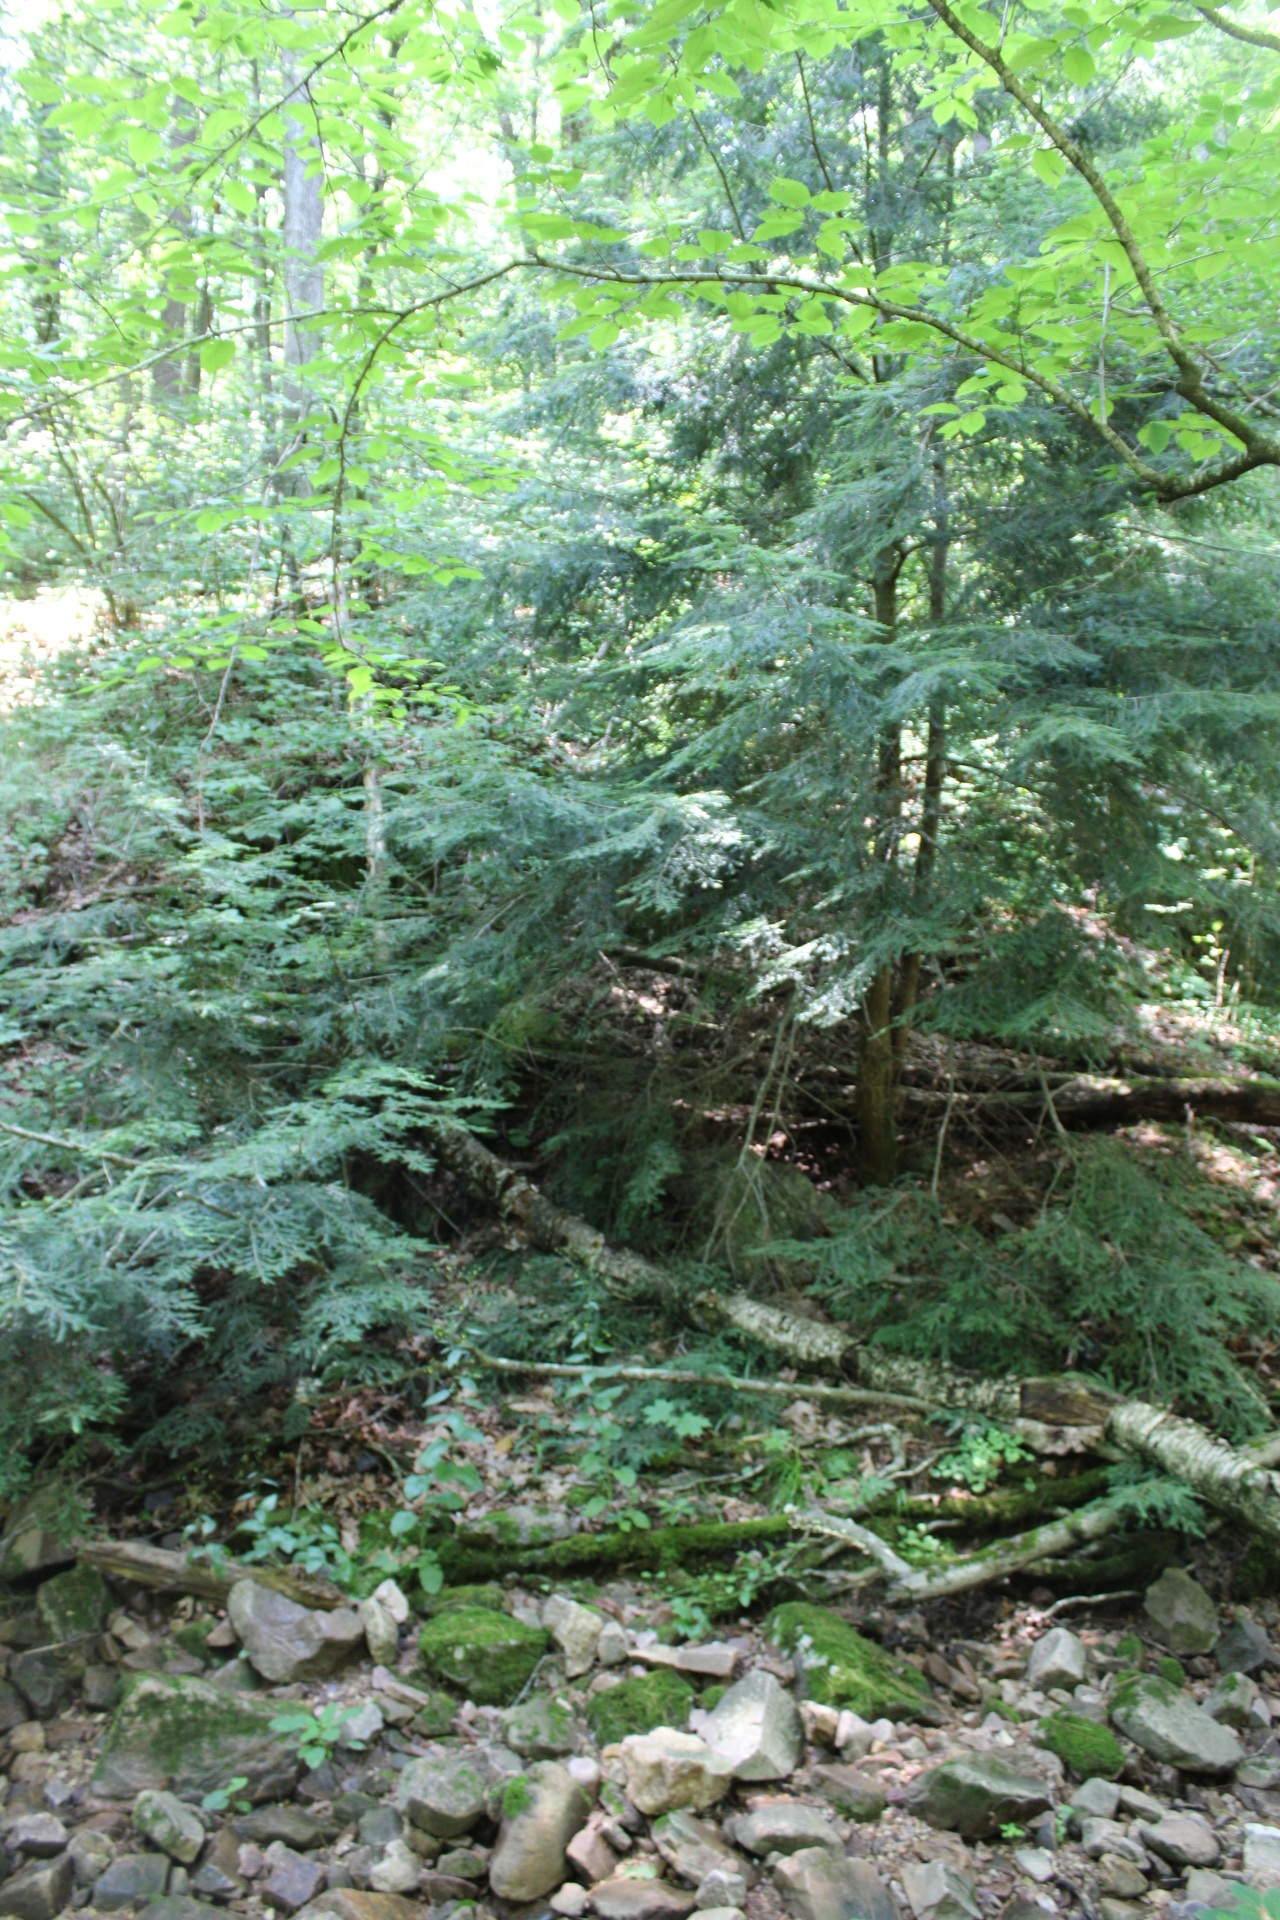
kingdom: Plantae
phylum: Tracheophyta
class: Pinopsida
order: Pinales
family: Pinaceae
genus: Tsuga
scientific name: Tsuga canadensis
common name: Eastern hemlock
